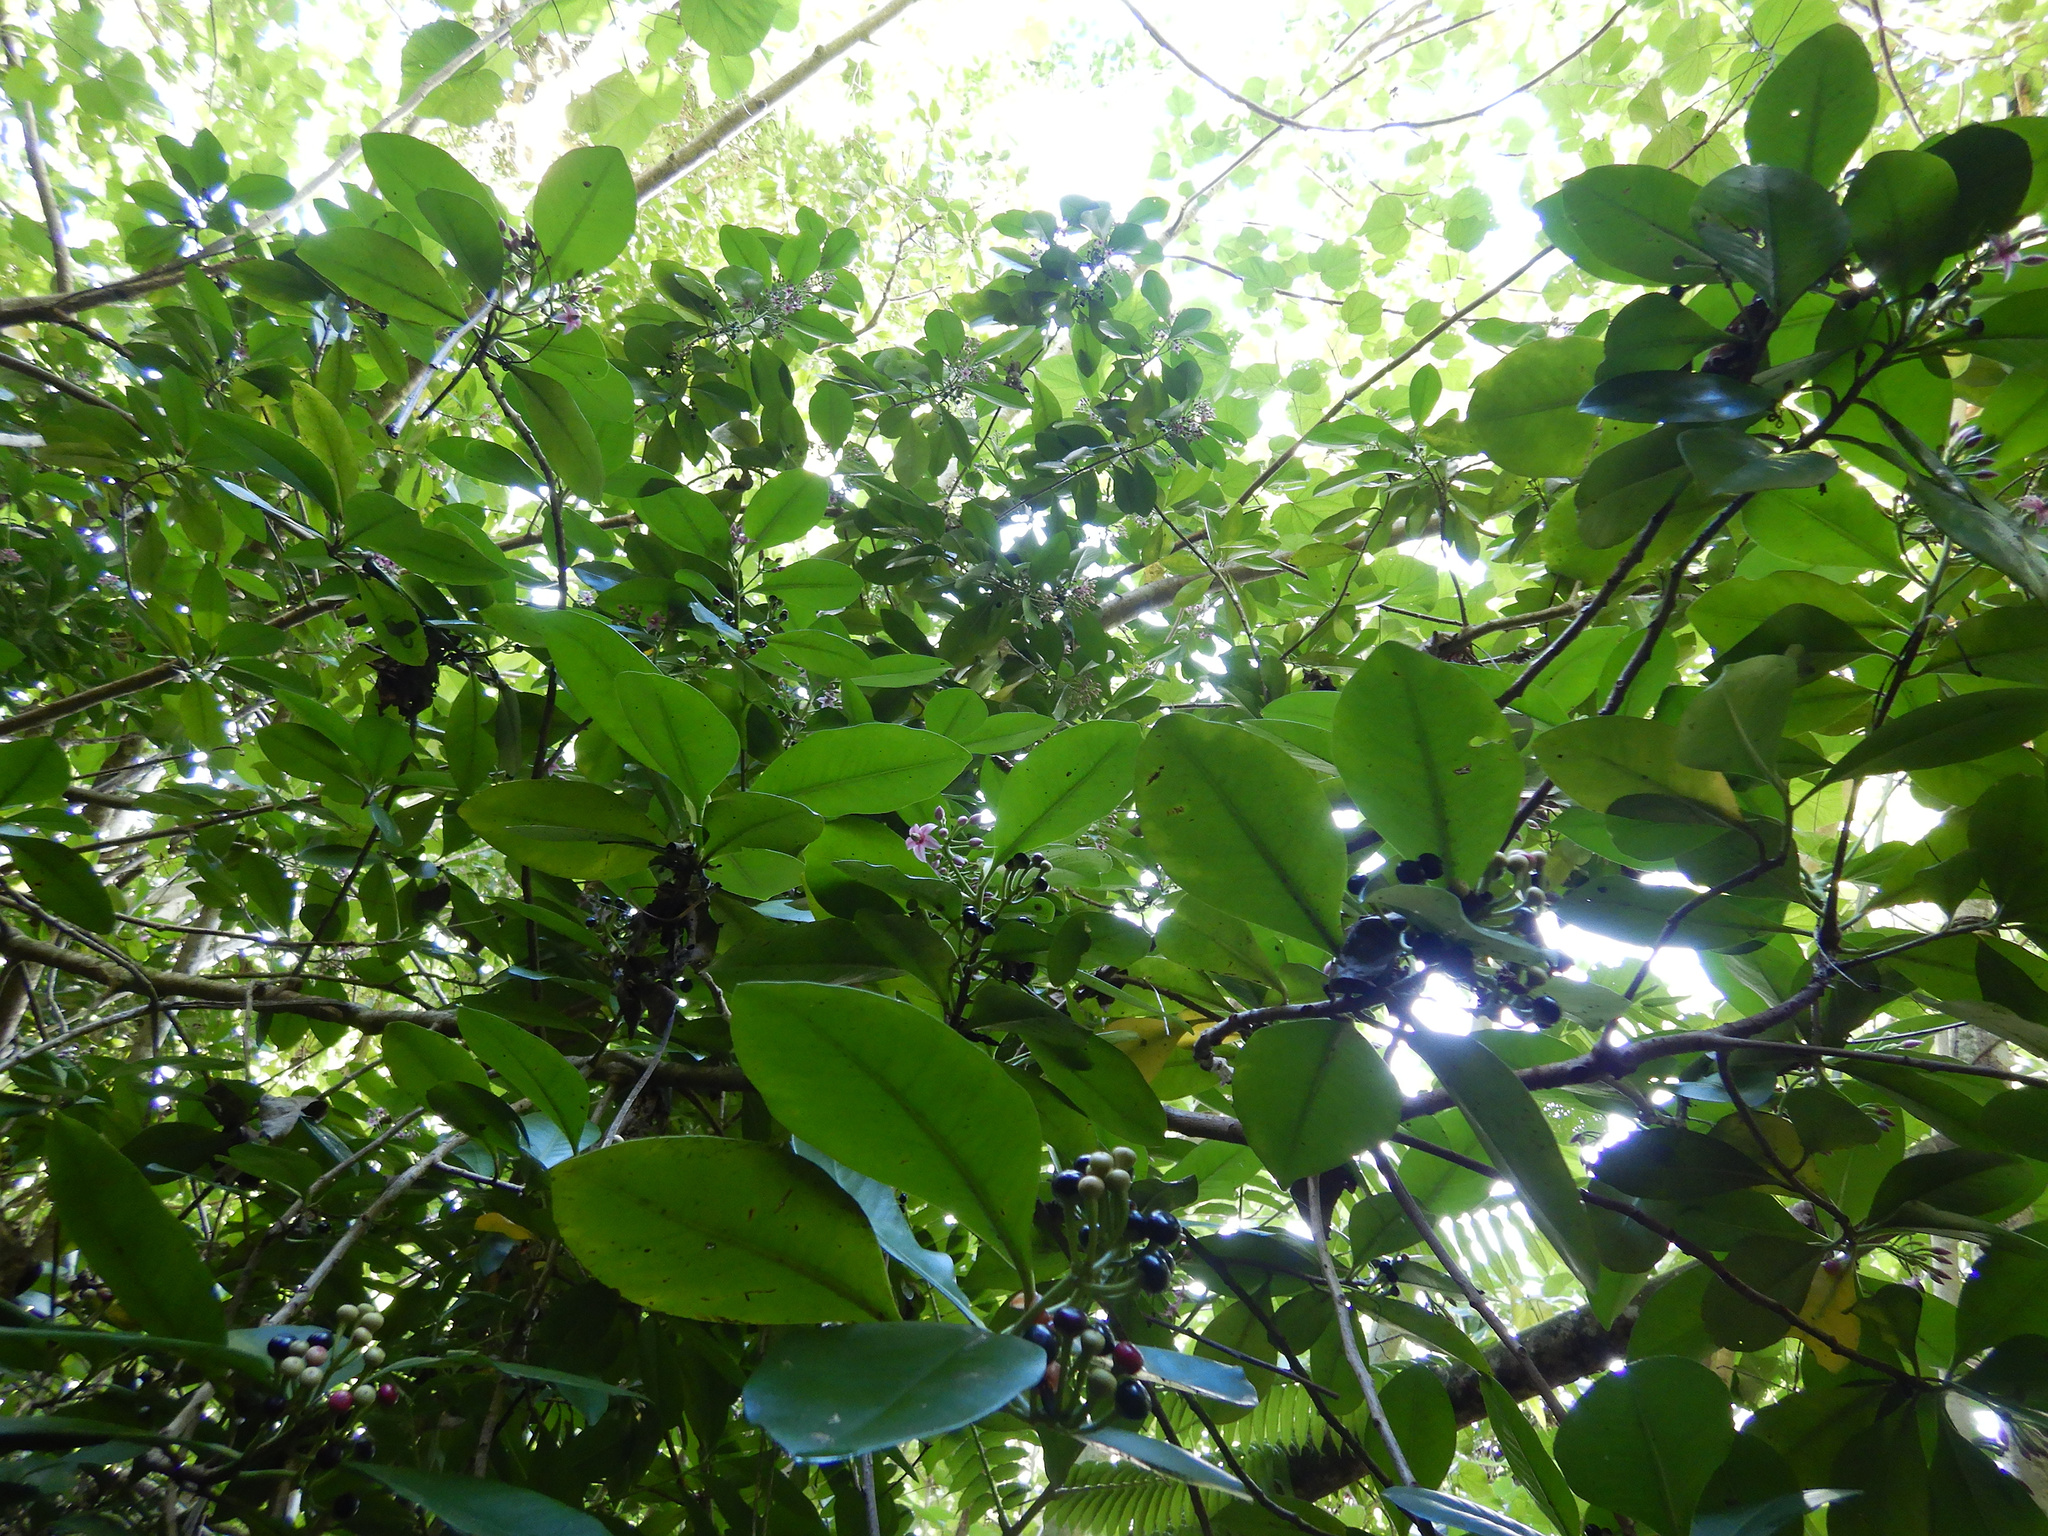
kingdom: Plantae
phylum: Tracheophyta
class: Magnoliopsida
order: Ericales
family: Primulaceae
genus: Ardisia
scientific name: Ardisia elliptica
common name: Shoebutton
